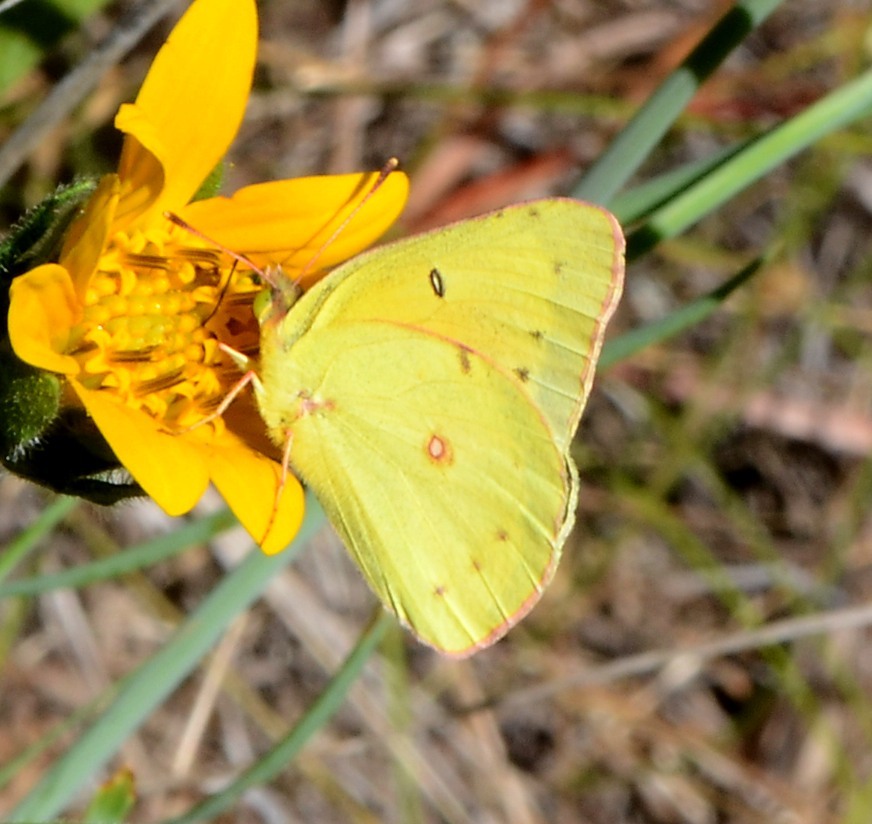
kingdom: Animalia
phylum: Arthropoda
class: Insecta
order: Lepidoptera
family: Pieridae
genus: Colias
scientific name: Colias eurytheme
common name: Alfalfa butterfly
